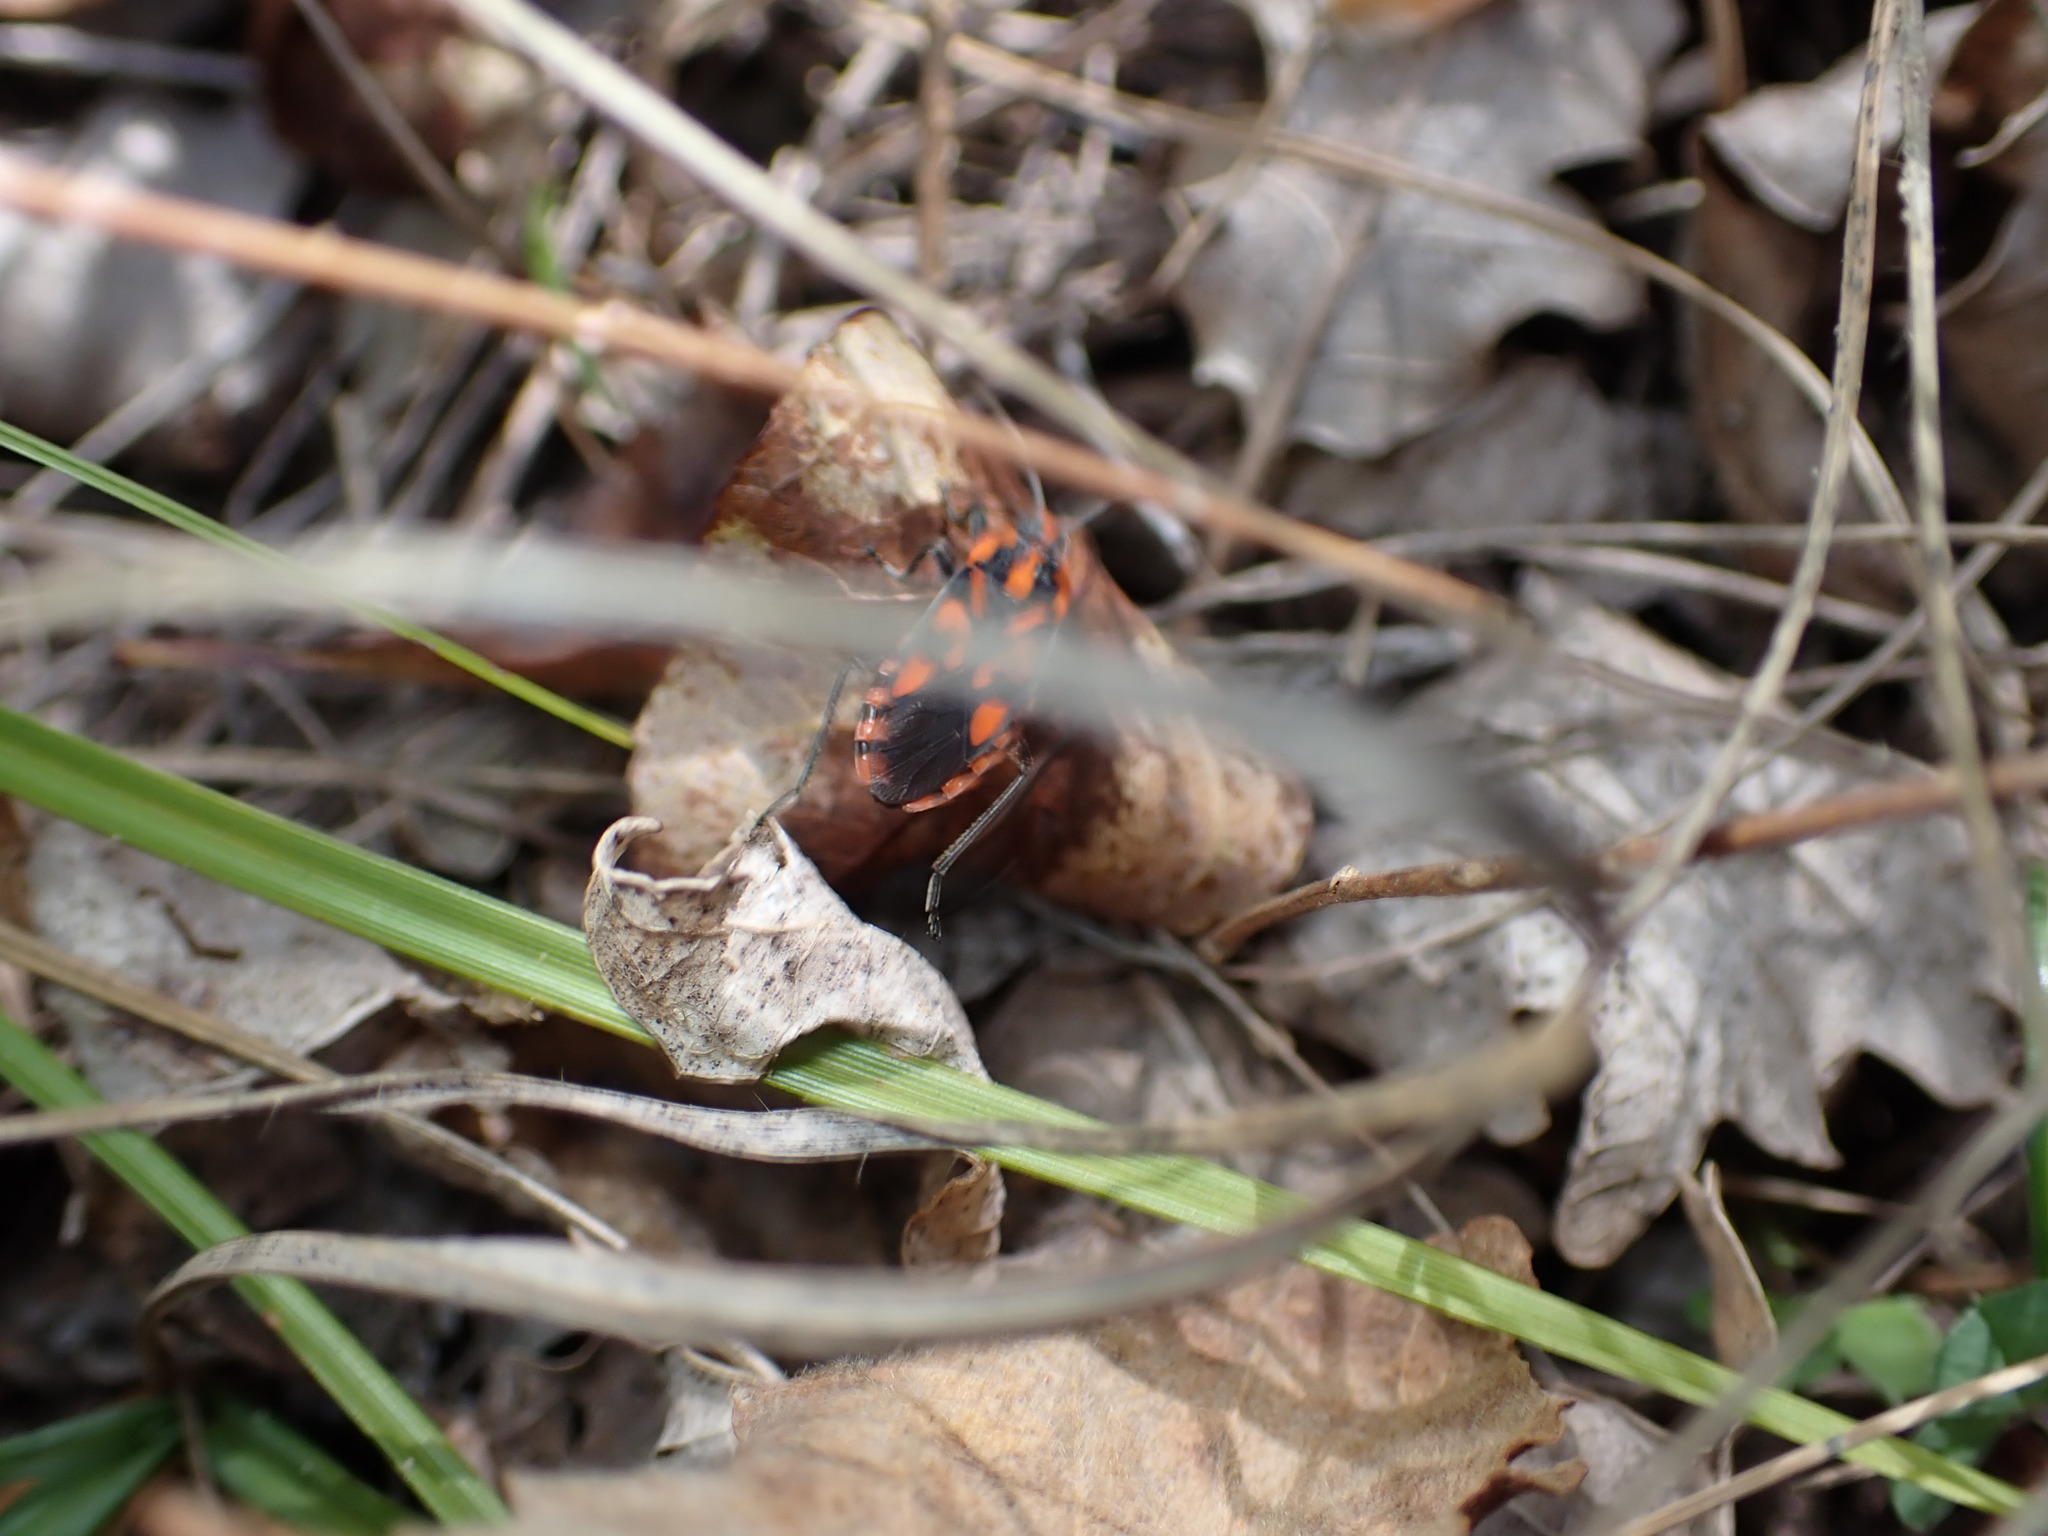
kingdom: Animalia
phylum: Arthropoda
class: Insecta
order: Hemiptera
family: Lygaeidae
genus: Spilostethus
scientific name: Spilostethus saxatilis
